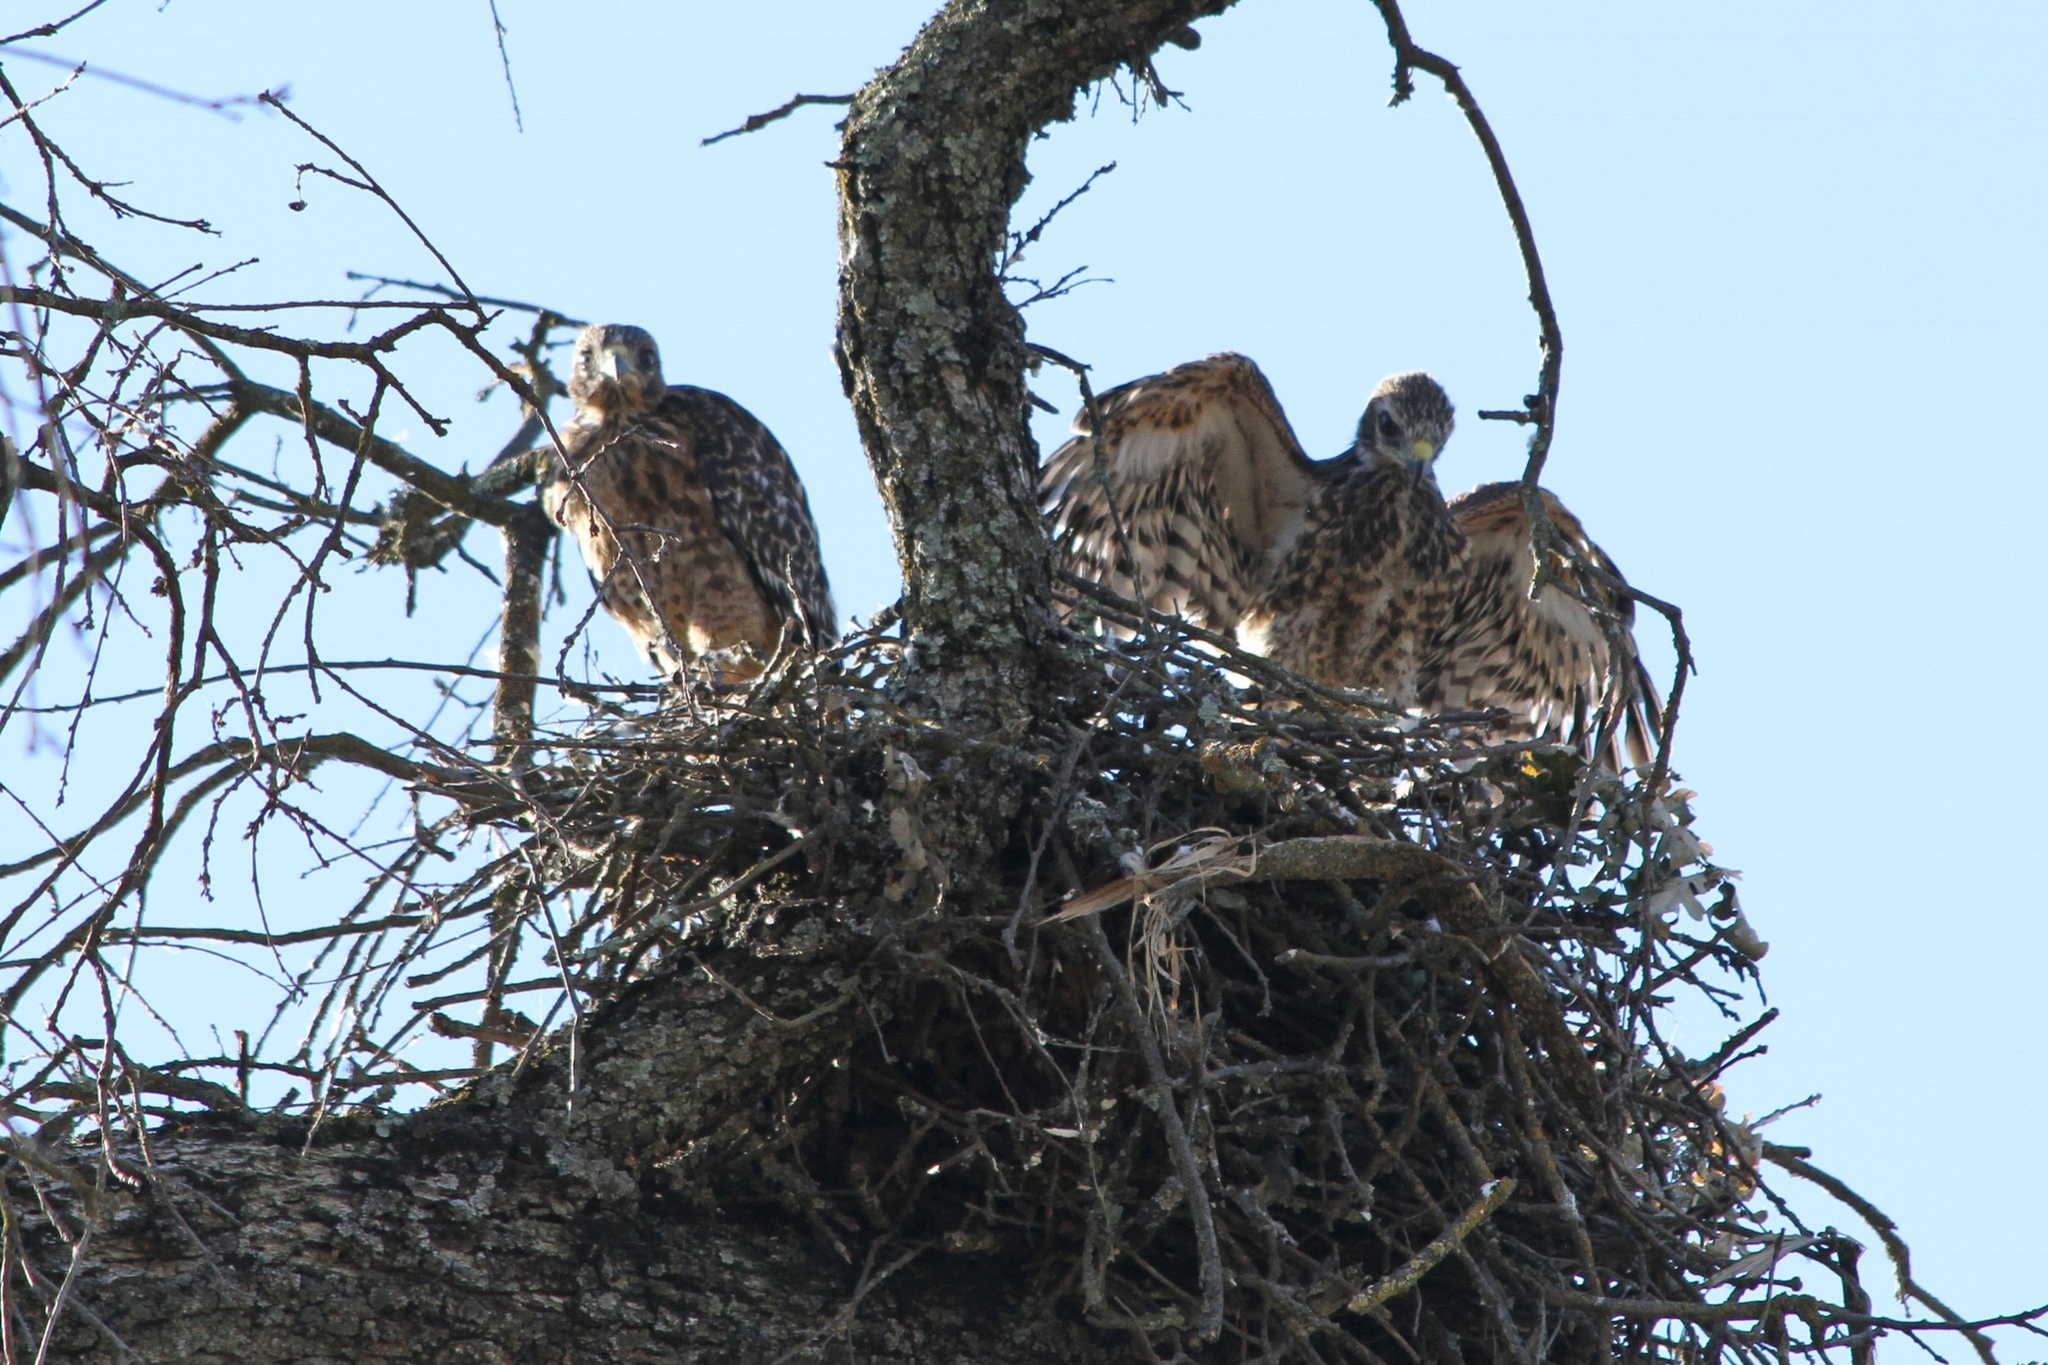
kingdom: Animalia
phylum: Chordata
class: Aves
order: Accipitriformes
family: Accipitridae
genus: Buteo
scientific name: Buteo lineatus
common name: Red-shouldered hawk
